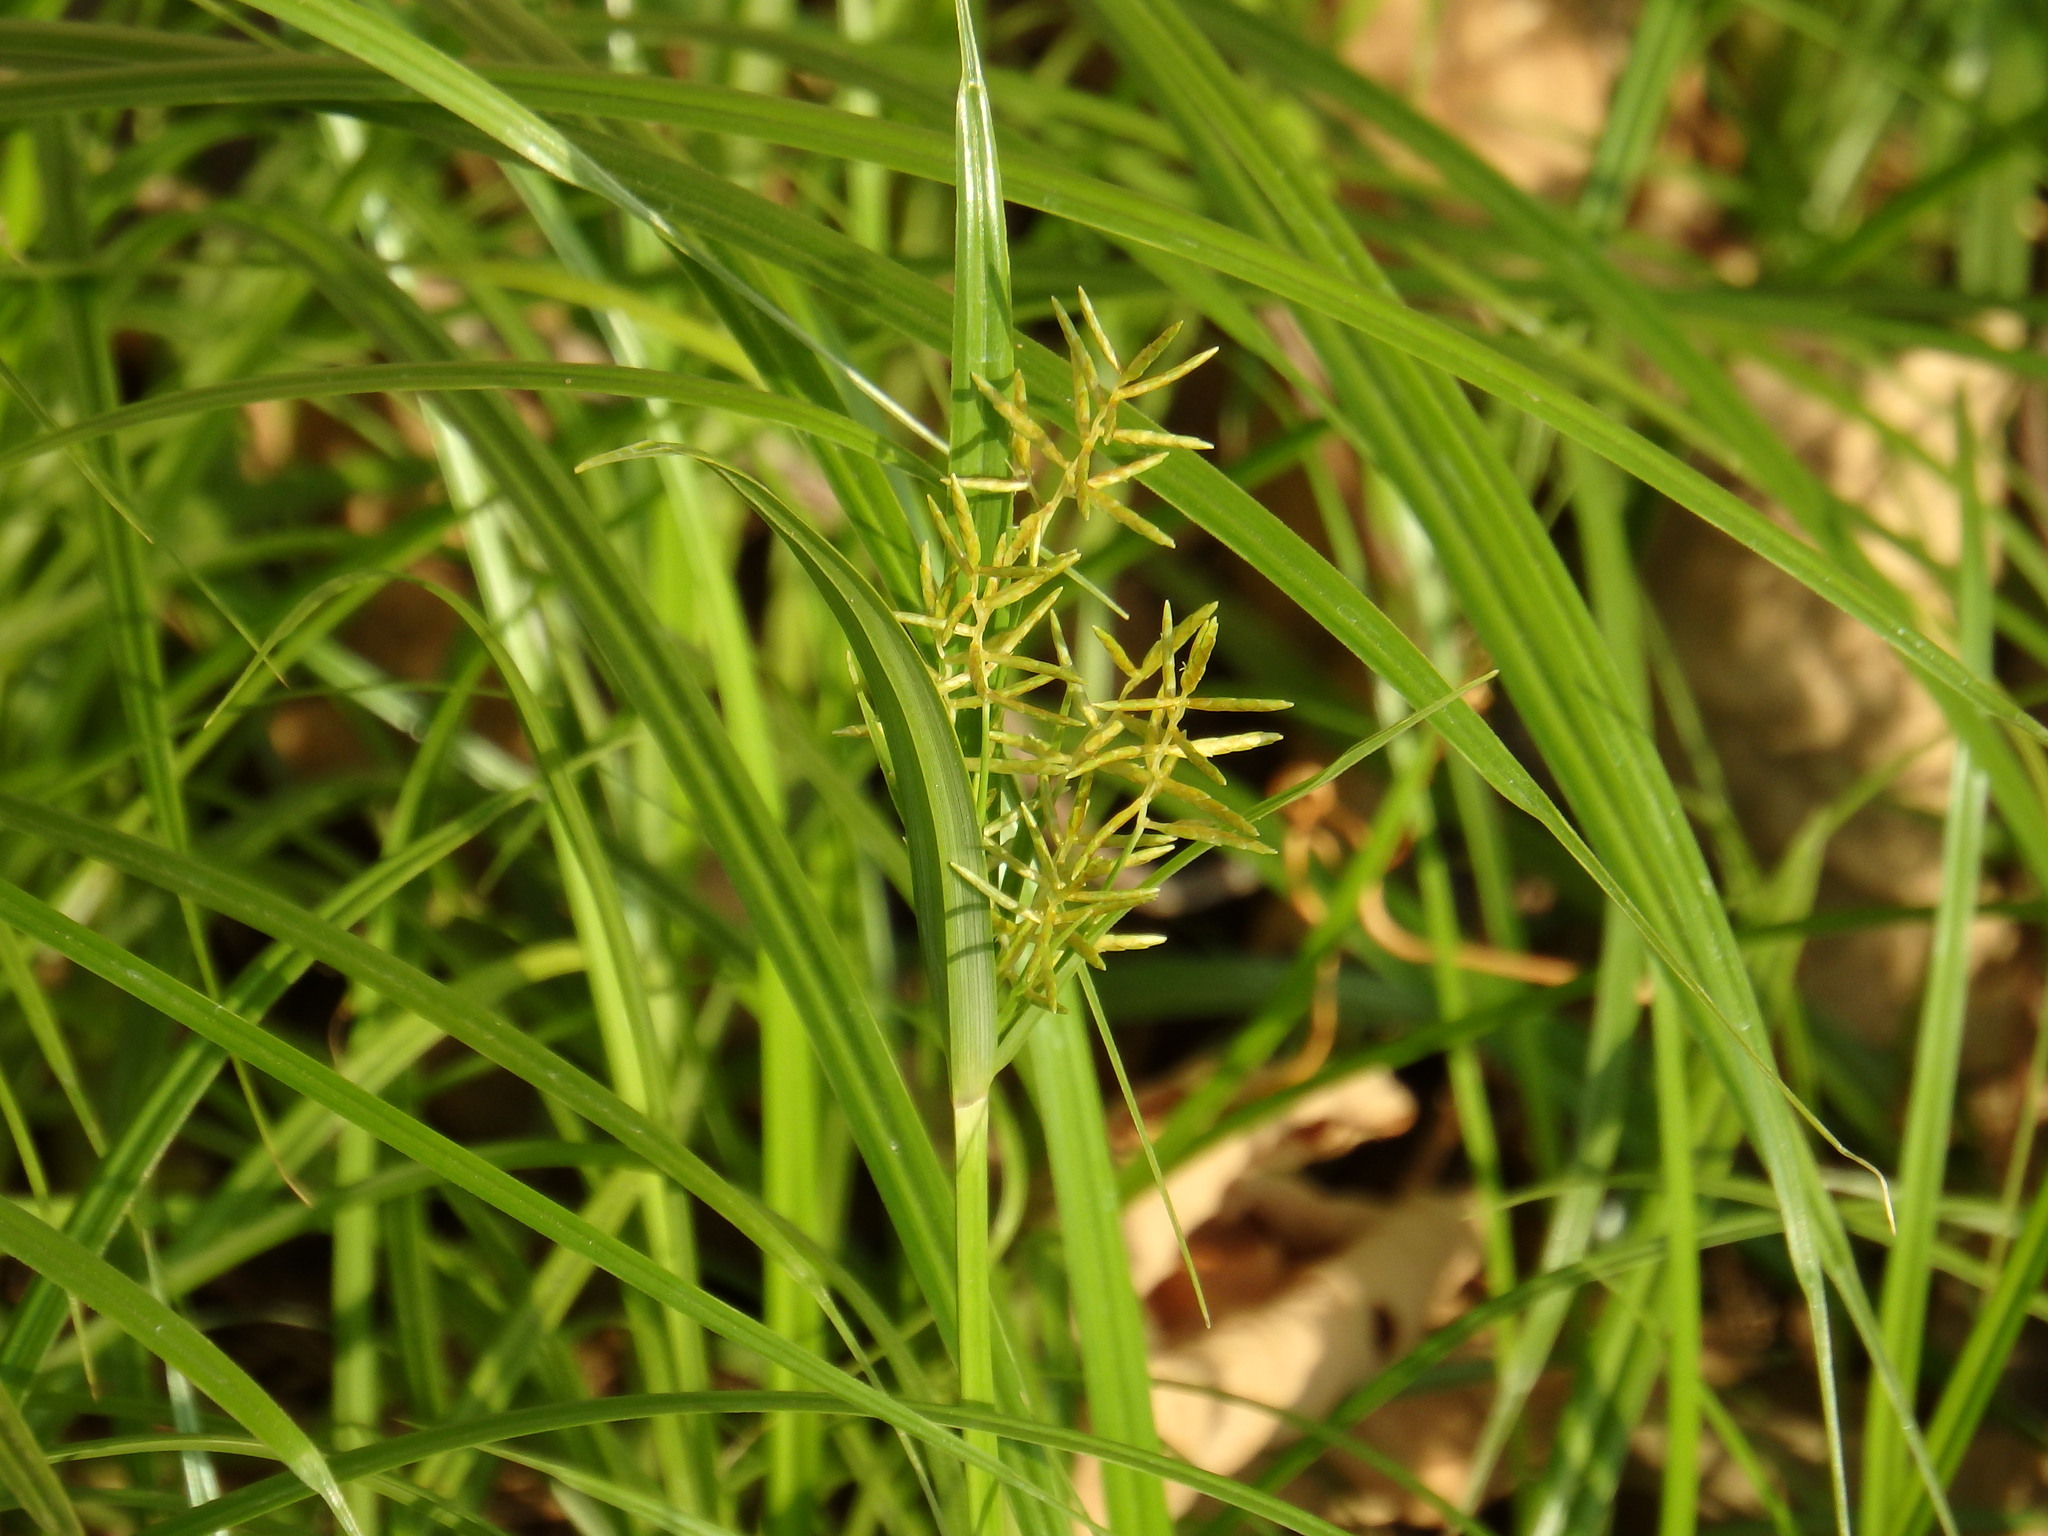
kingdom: Plantae
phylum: Tracheophyta
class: Liliopsida
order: Poales
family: Cyperaceae
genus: Cyperus
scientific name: Cyperus esculentus
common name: Yellow nutsedge
